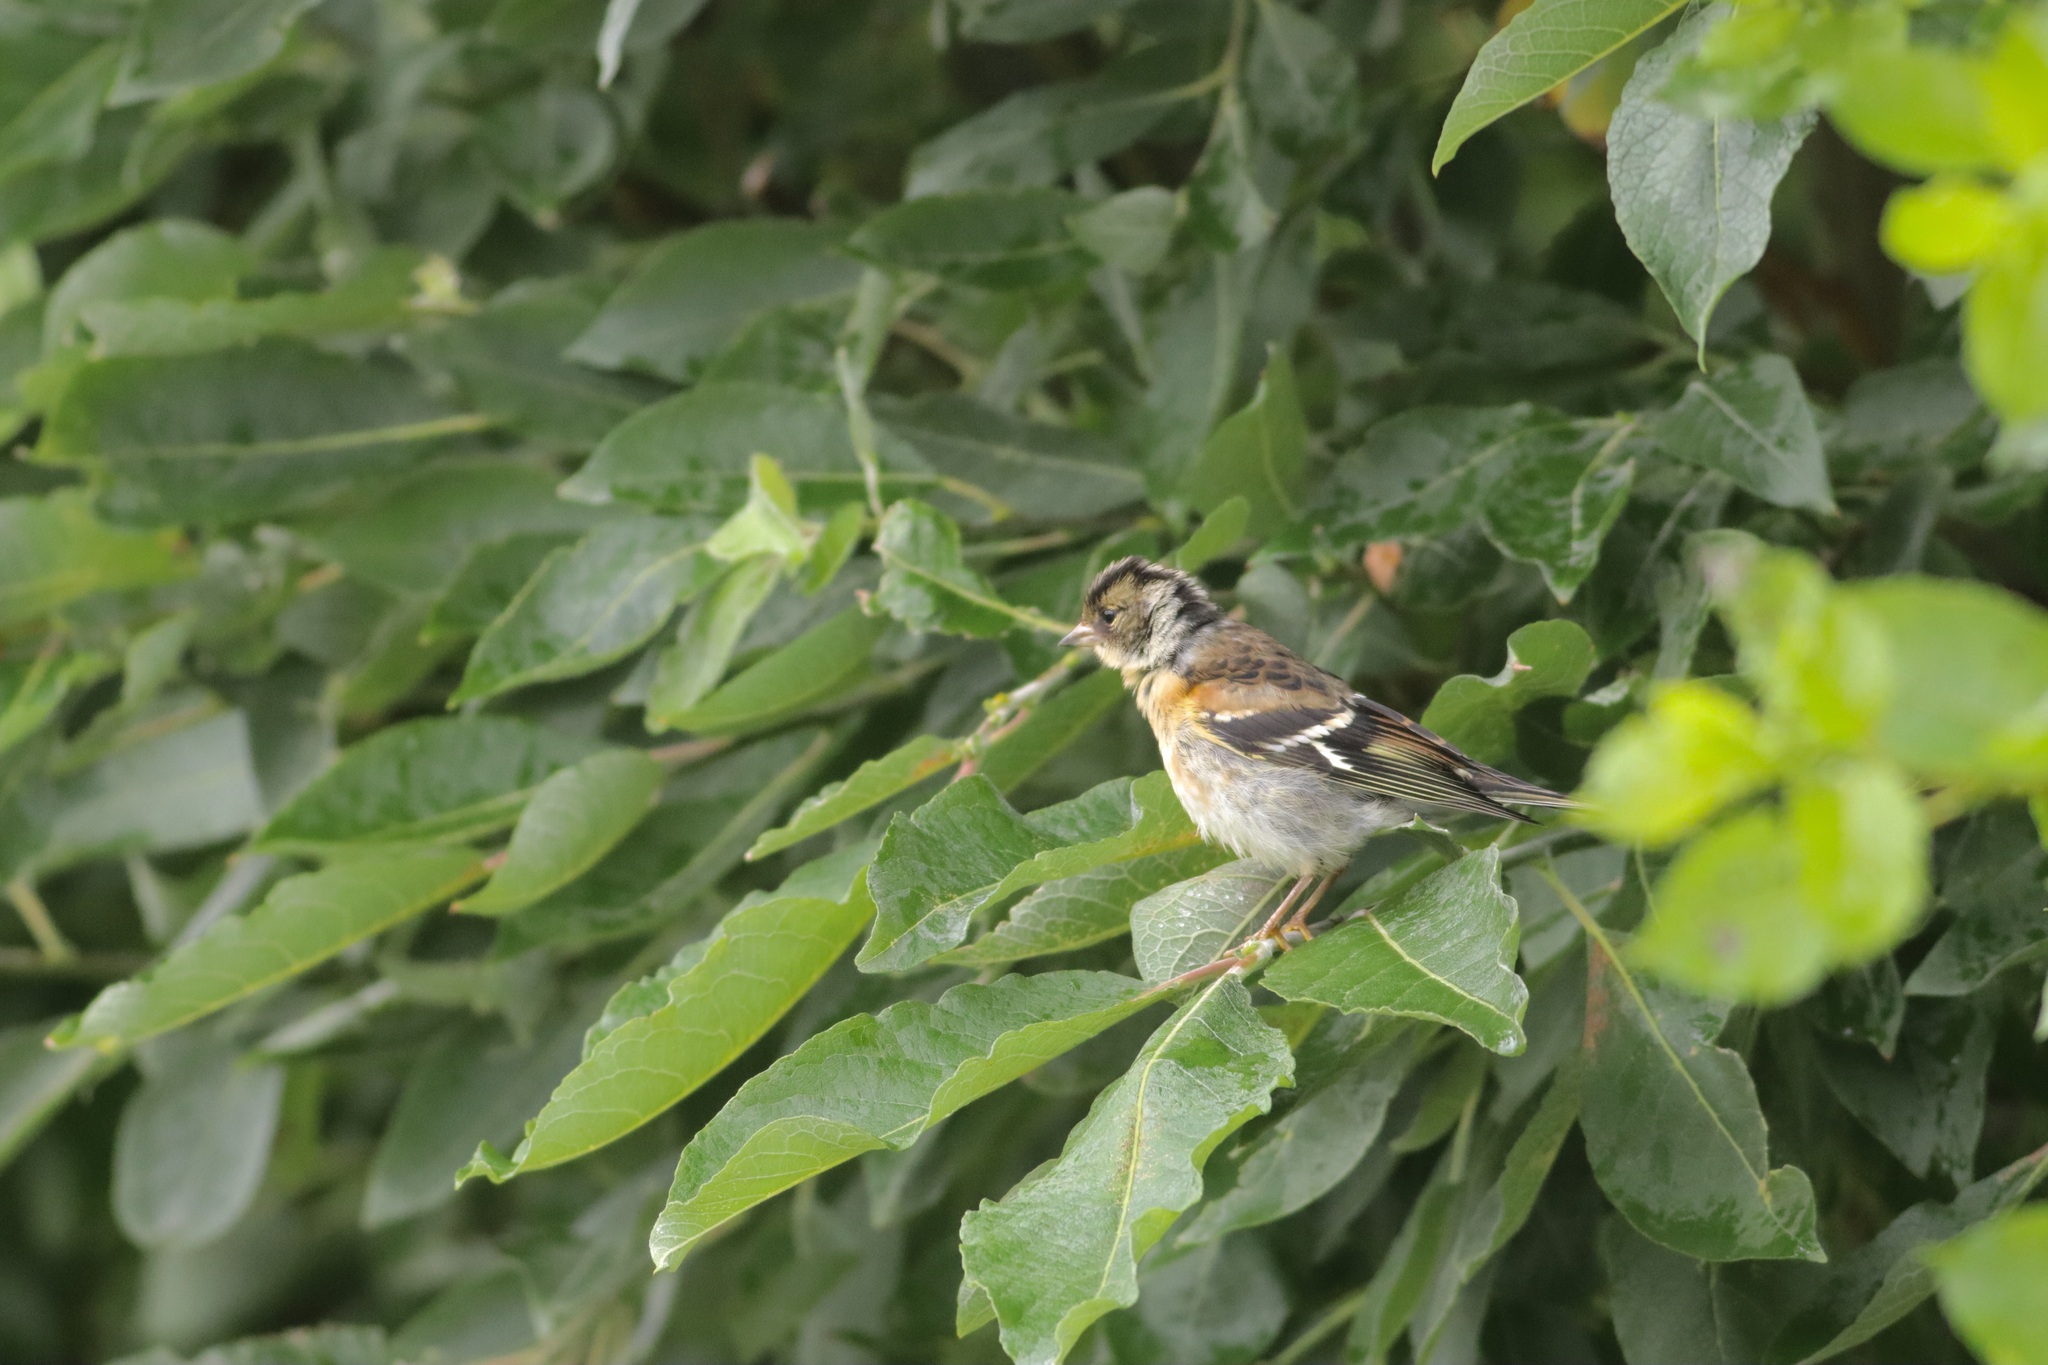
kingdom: Animalia
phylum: Chordata
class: Aves
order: Passeriformes
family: Fringillidae
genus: Fringilla
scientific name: Fringilla montifringilla
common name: Brambling
